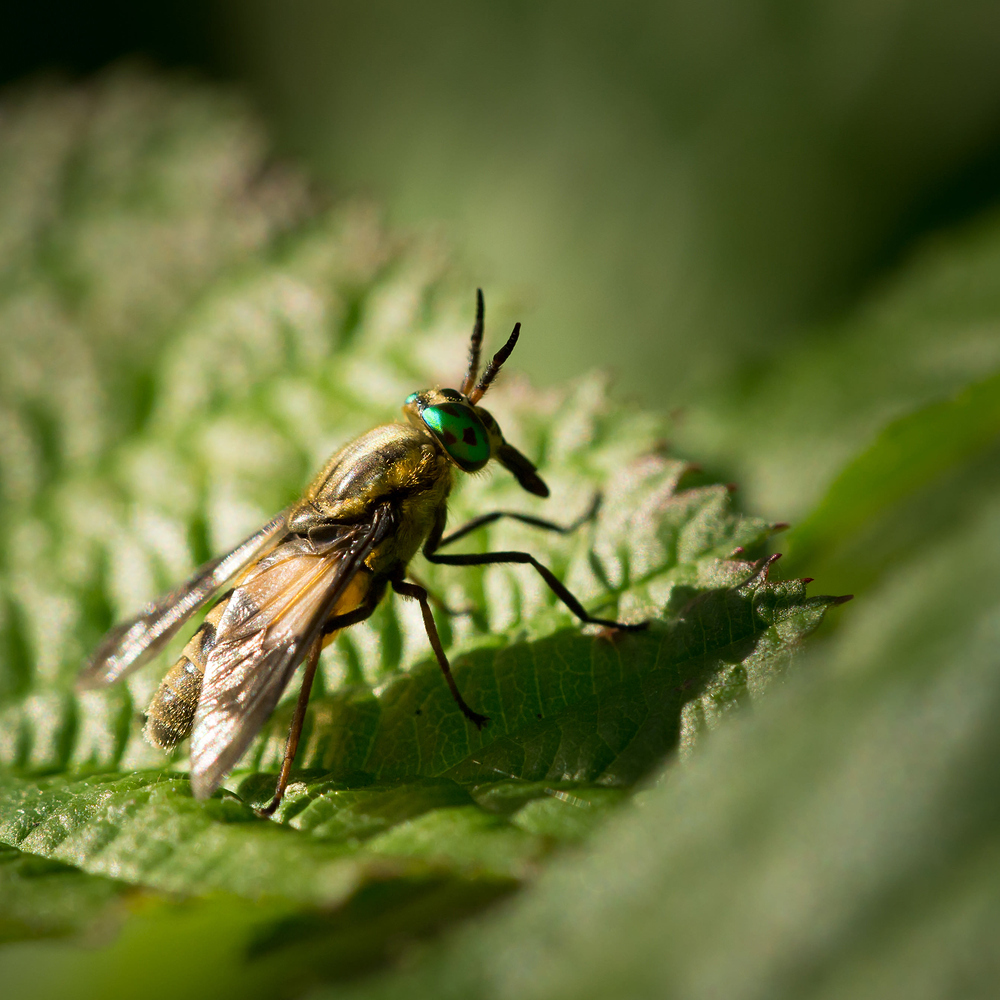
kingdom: Animalia
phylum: Arthropoda
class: Insecta
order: Diptera
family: Tabanidae
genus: Chrysops
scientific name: Chrysops viduatus
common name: Square-spot deerfly
